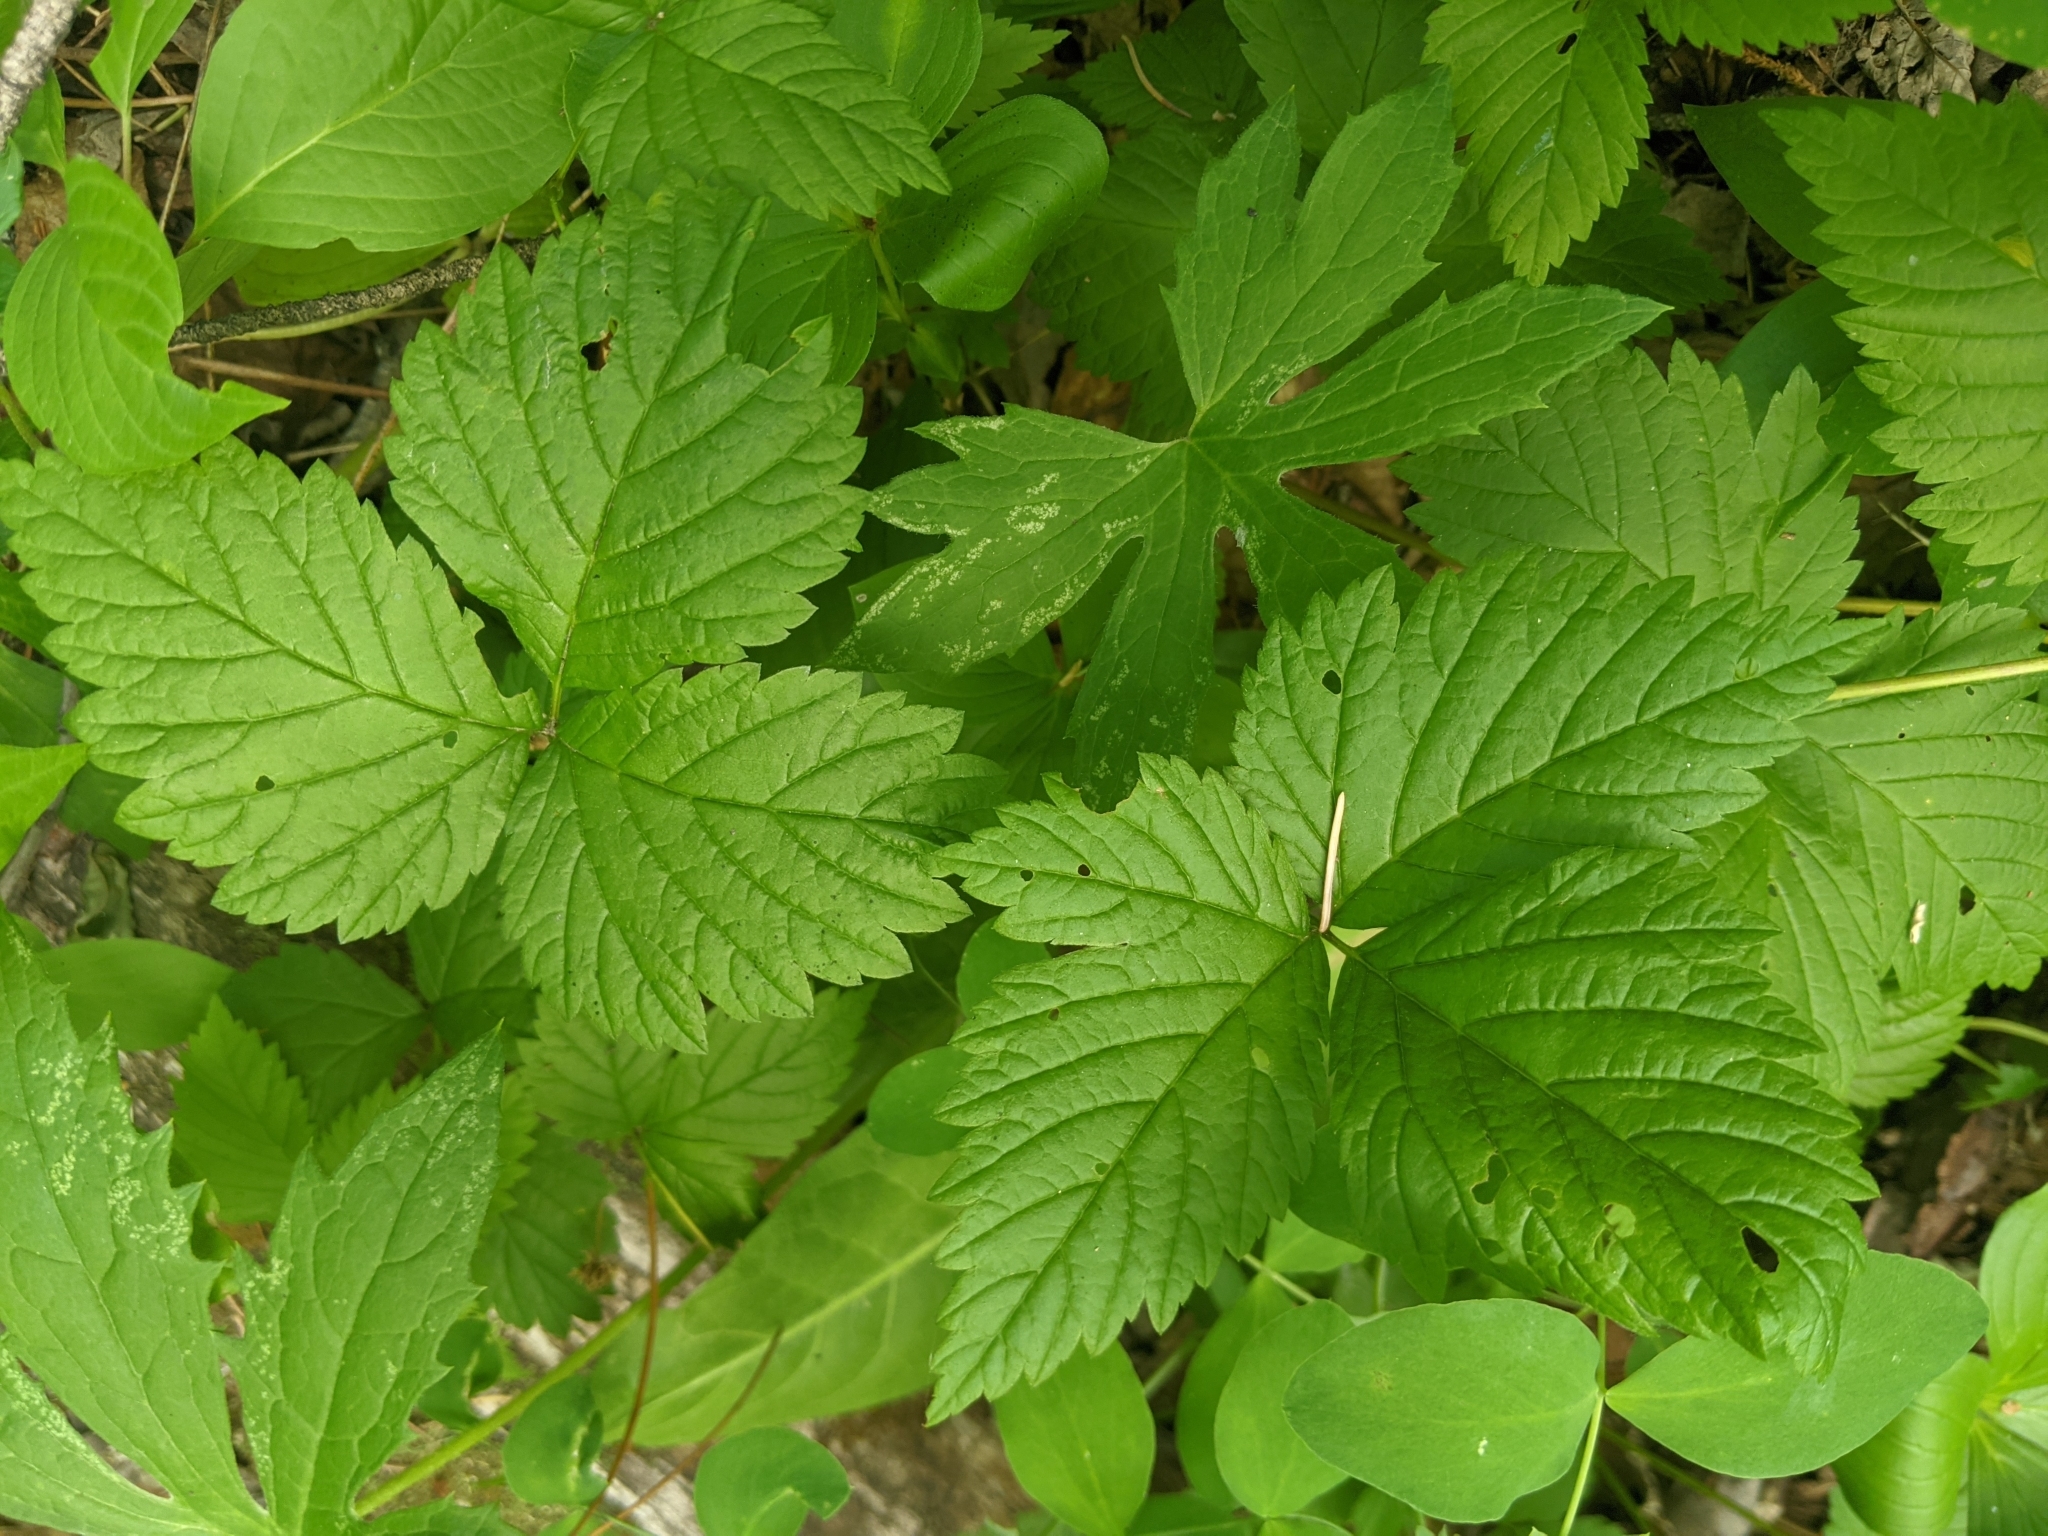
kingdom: Plantae
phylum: Tracheophyta
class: Magnoliopsida
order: Rosales
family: Rosaceae
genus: Rubus
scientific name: Rubus pubescens
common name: Dwarf raspberry
